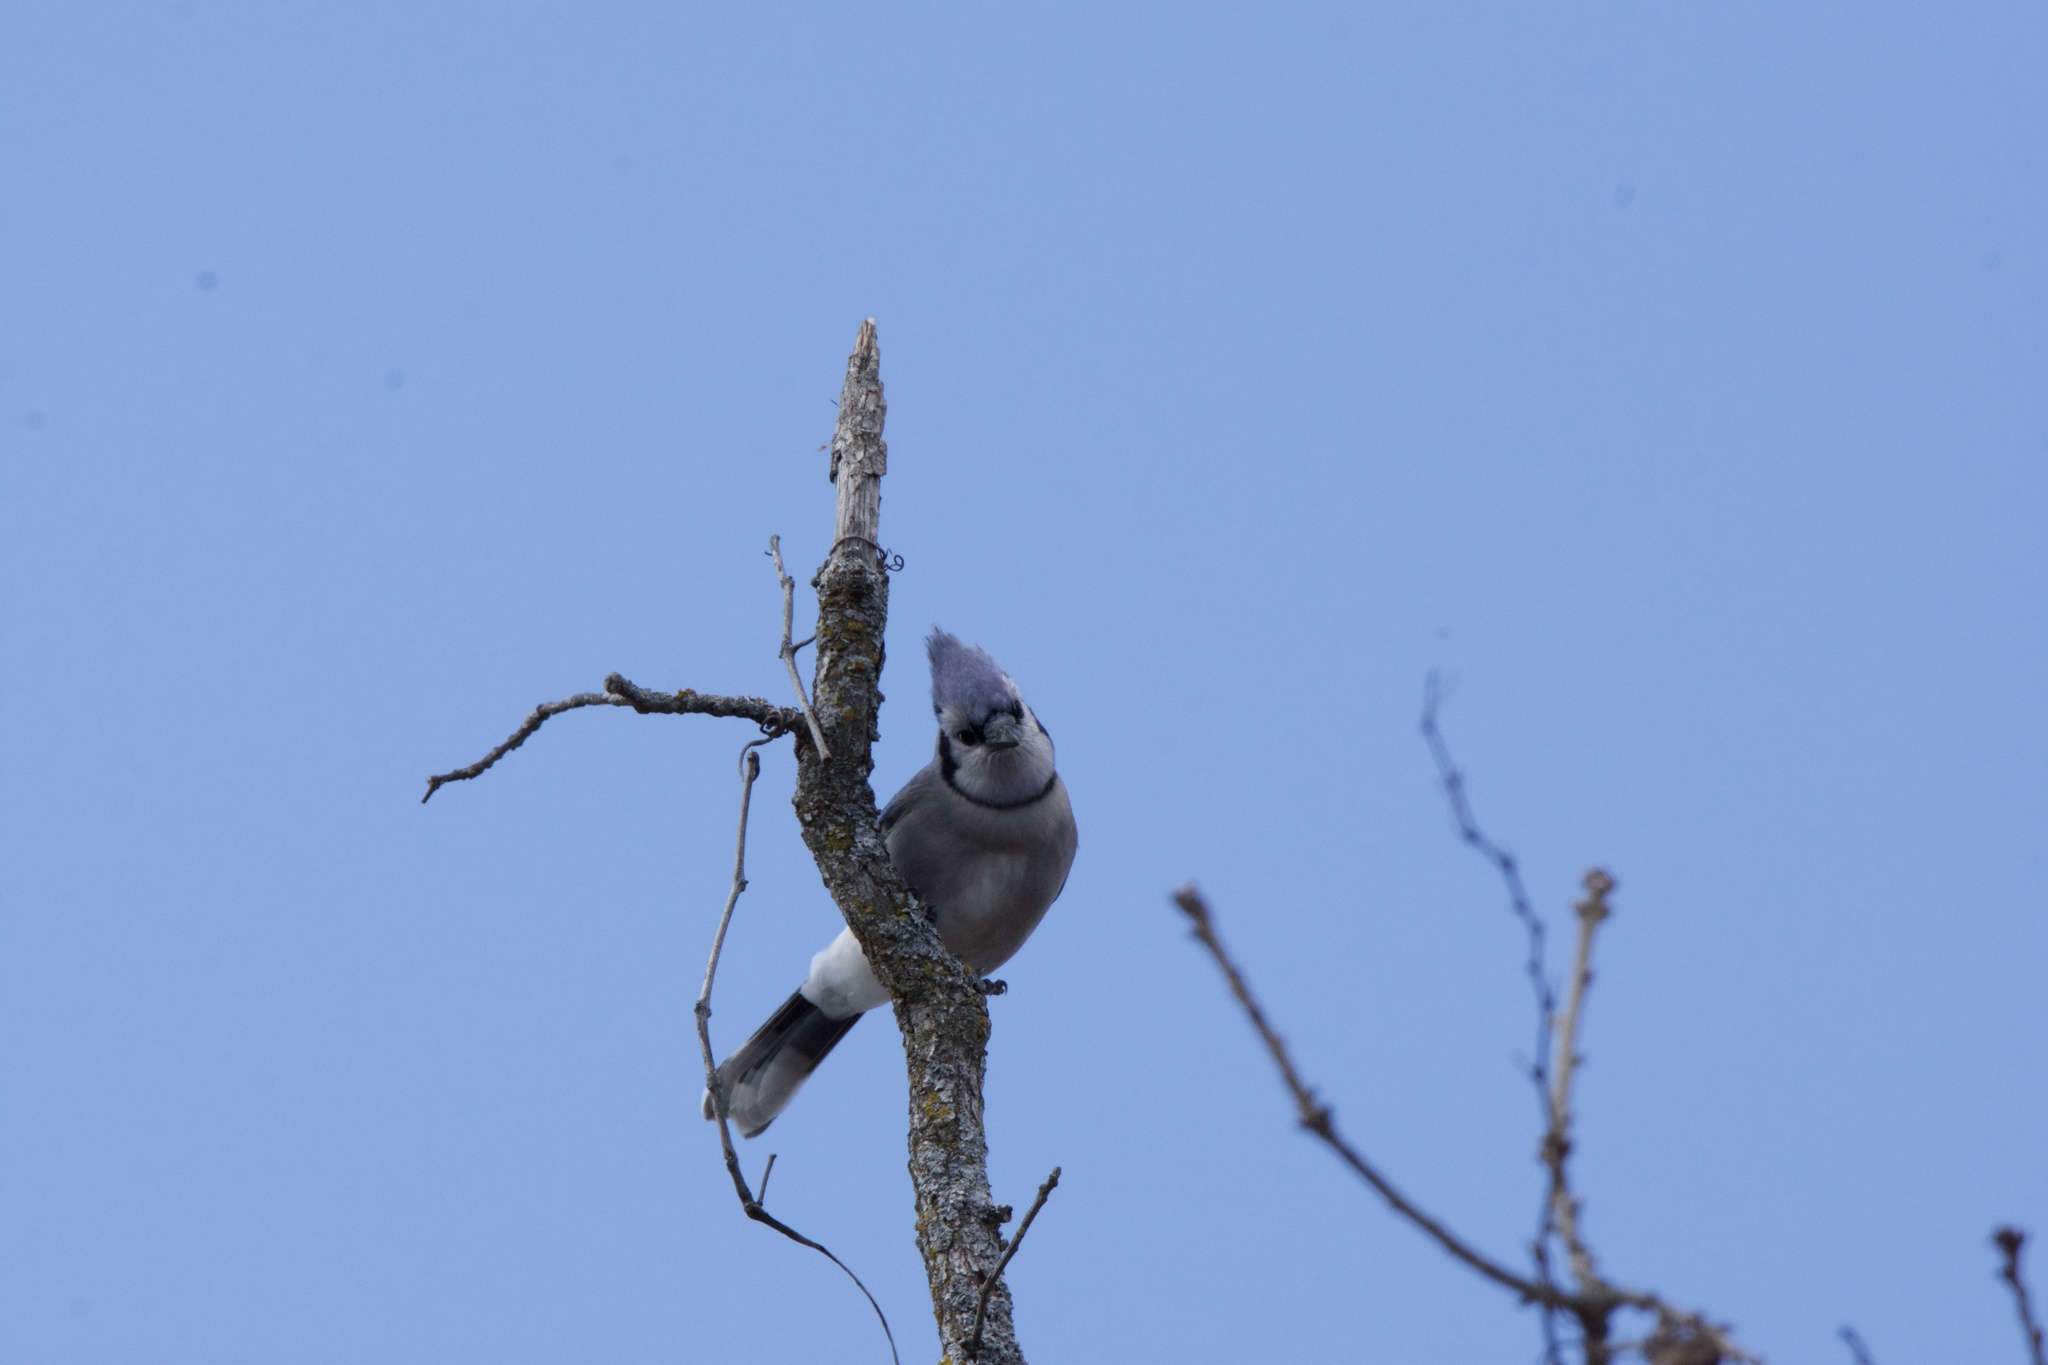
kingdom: Animalia
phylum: Chordata
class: Aves
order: Passeriformes
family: Corvidae
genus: Cyanocitta
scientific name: Cyanocitta cristata
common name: Blue jay
